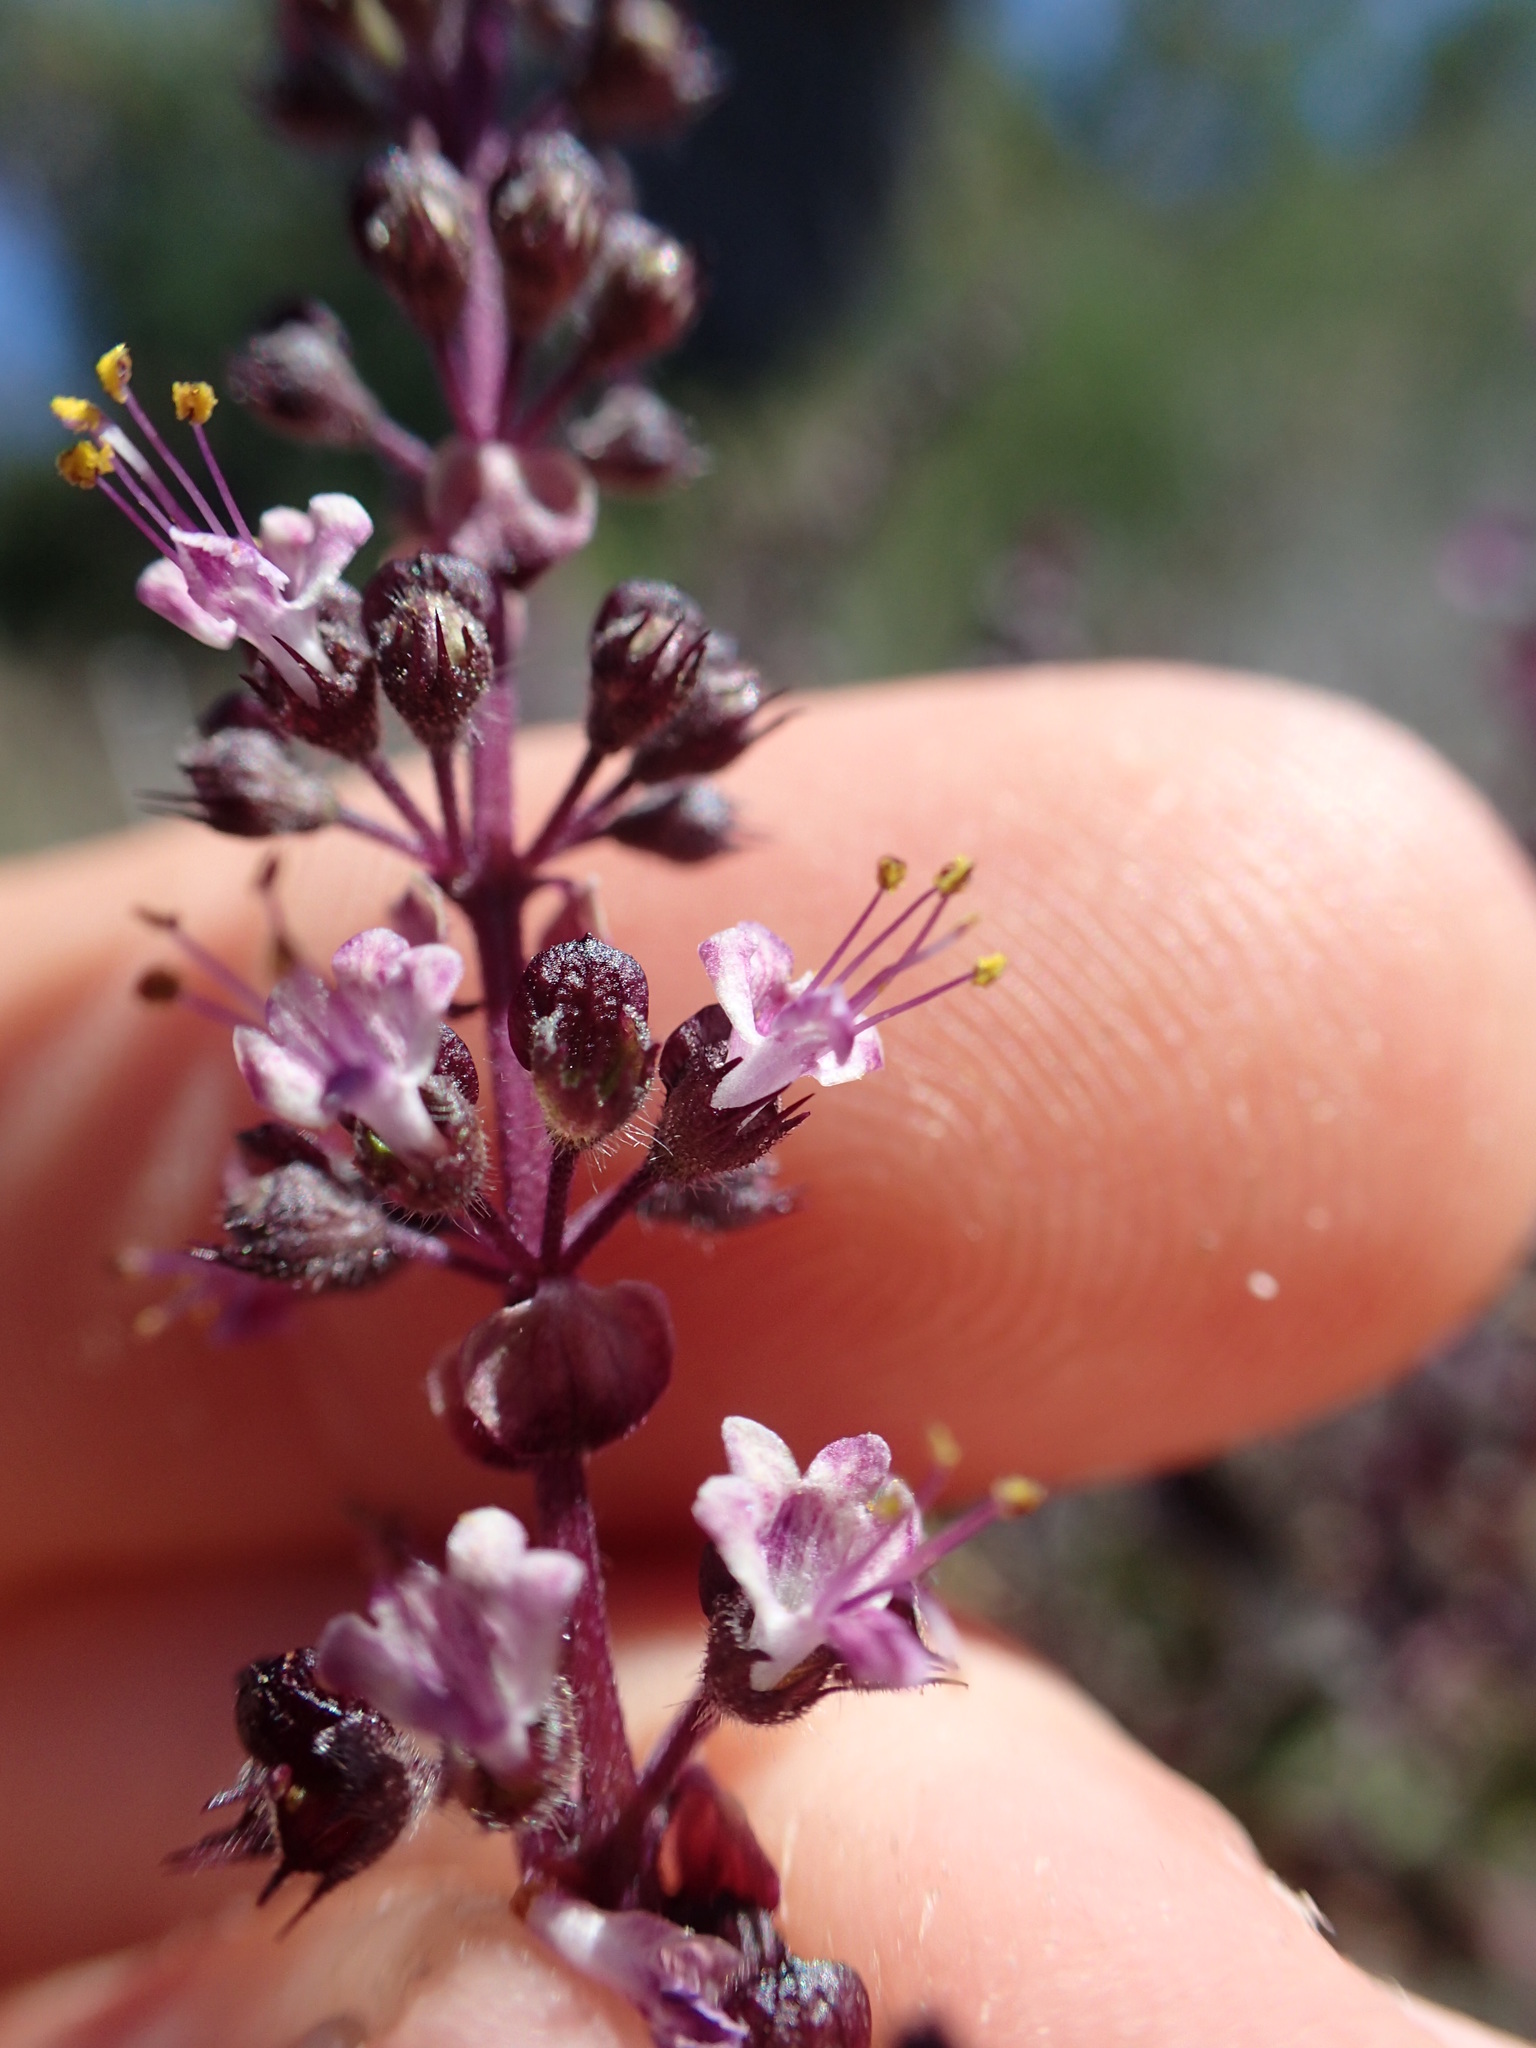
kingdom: Plantae
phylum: Tracheophyta
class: Magnoliopsida
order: Lamiales
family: Lamiaceae
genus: Ocimum
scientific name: Ocimum tenuiflorum
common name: Sacred basil
